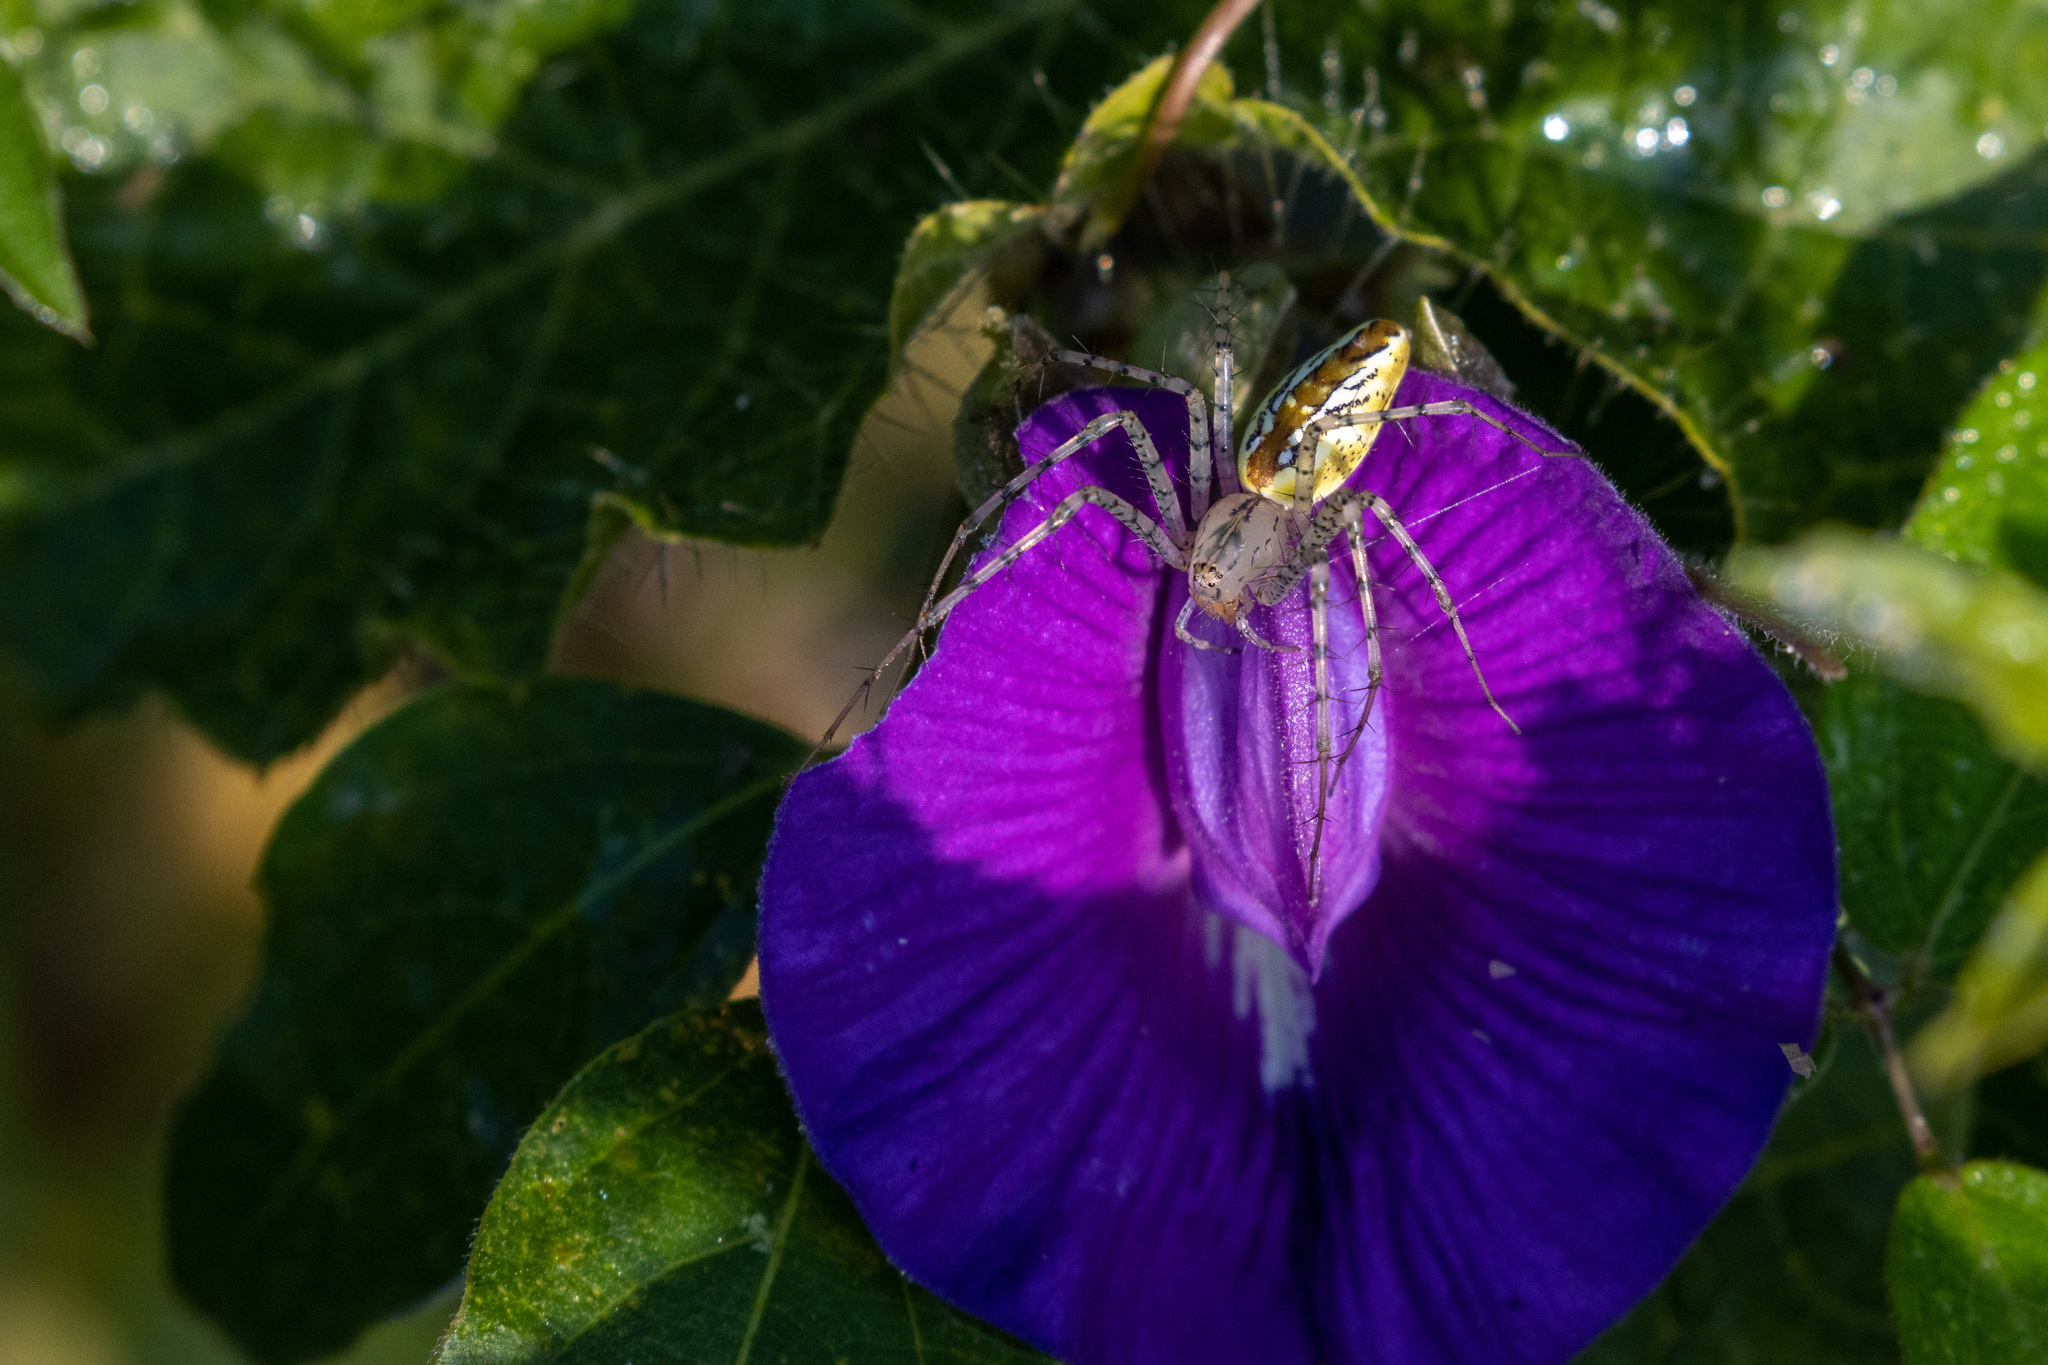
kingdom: Animalia
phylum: Arthropoda
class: Arachnida
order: Araneae
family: Oxyopidae
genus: Peucetia
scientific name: Peucetia flava
